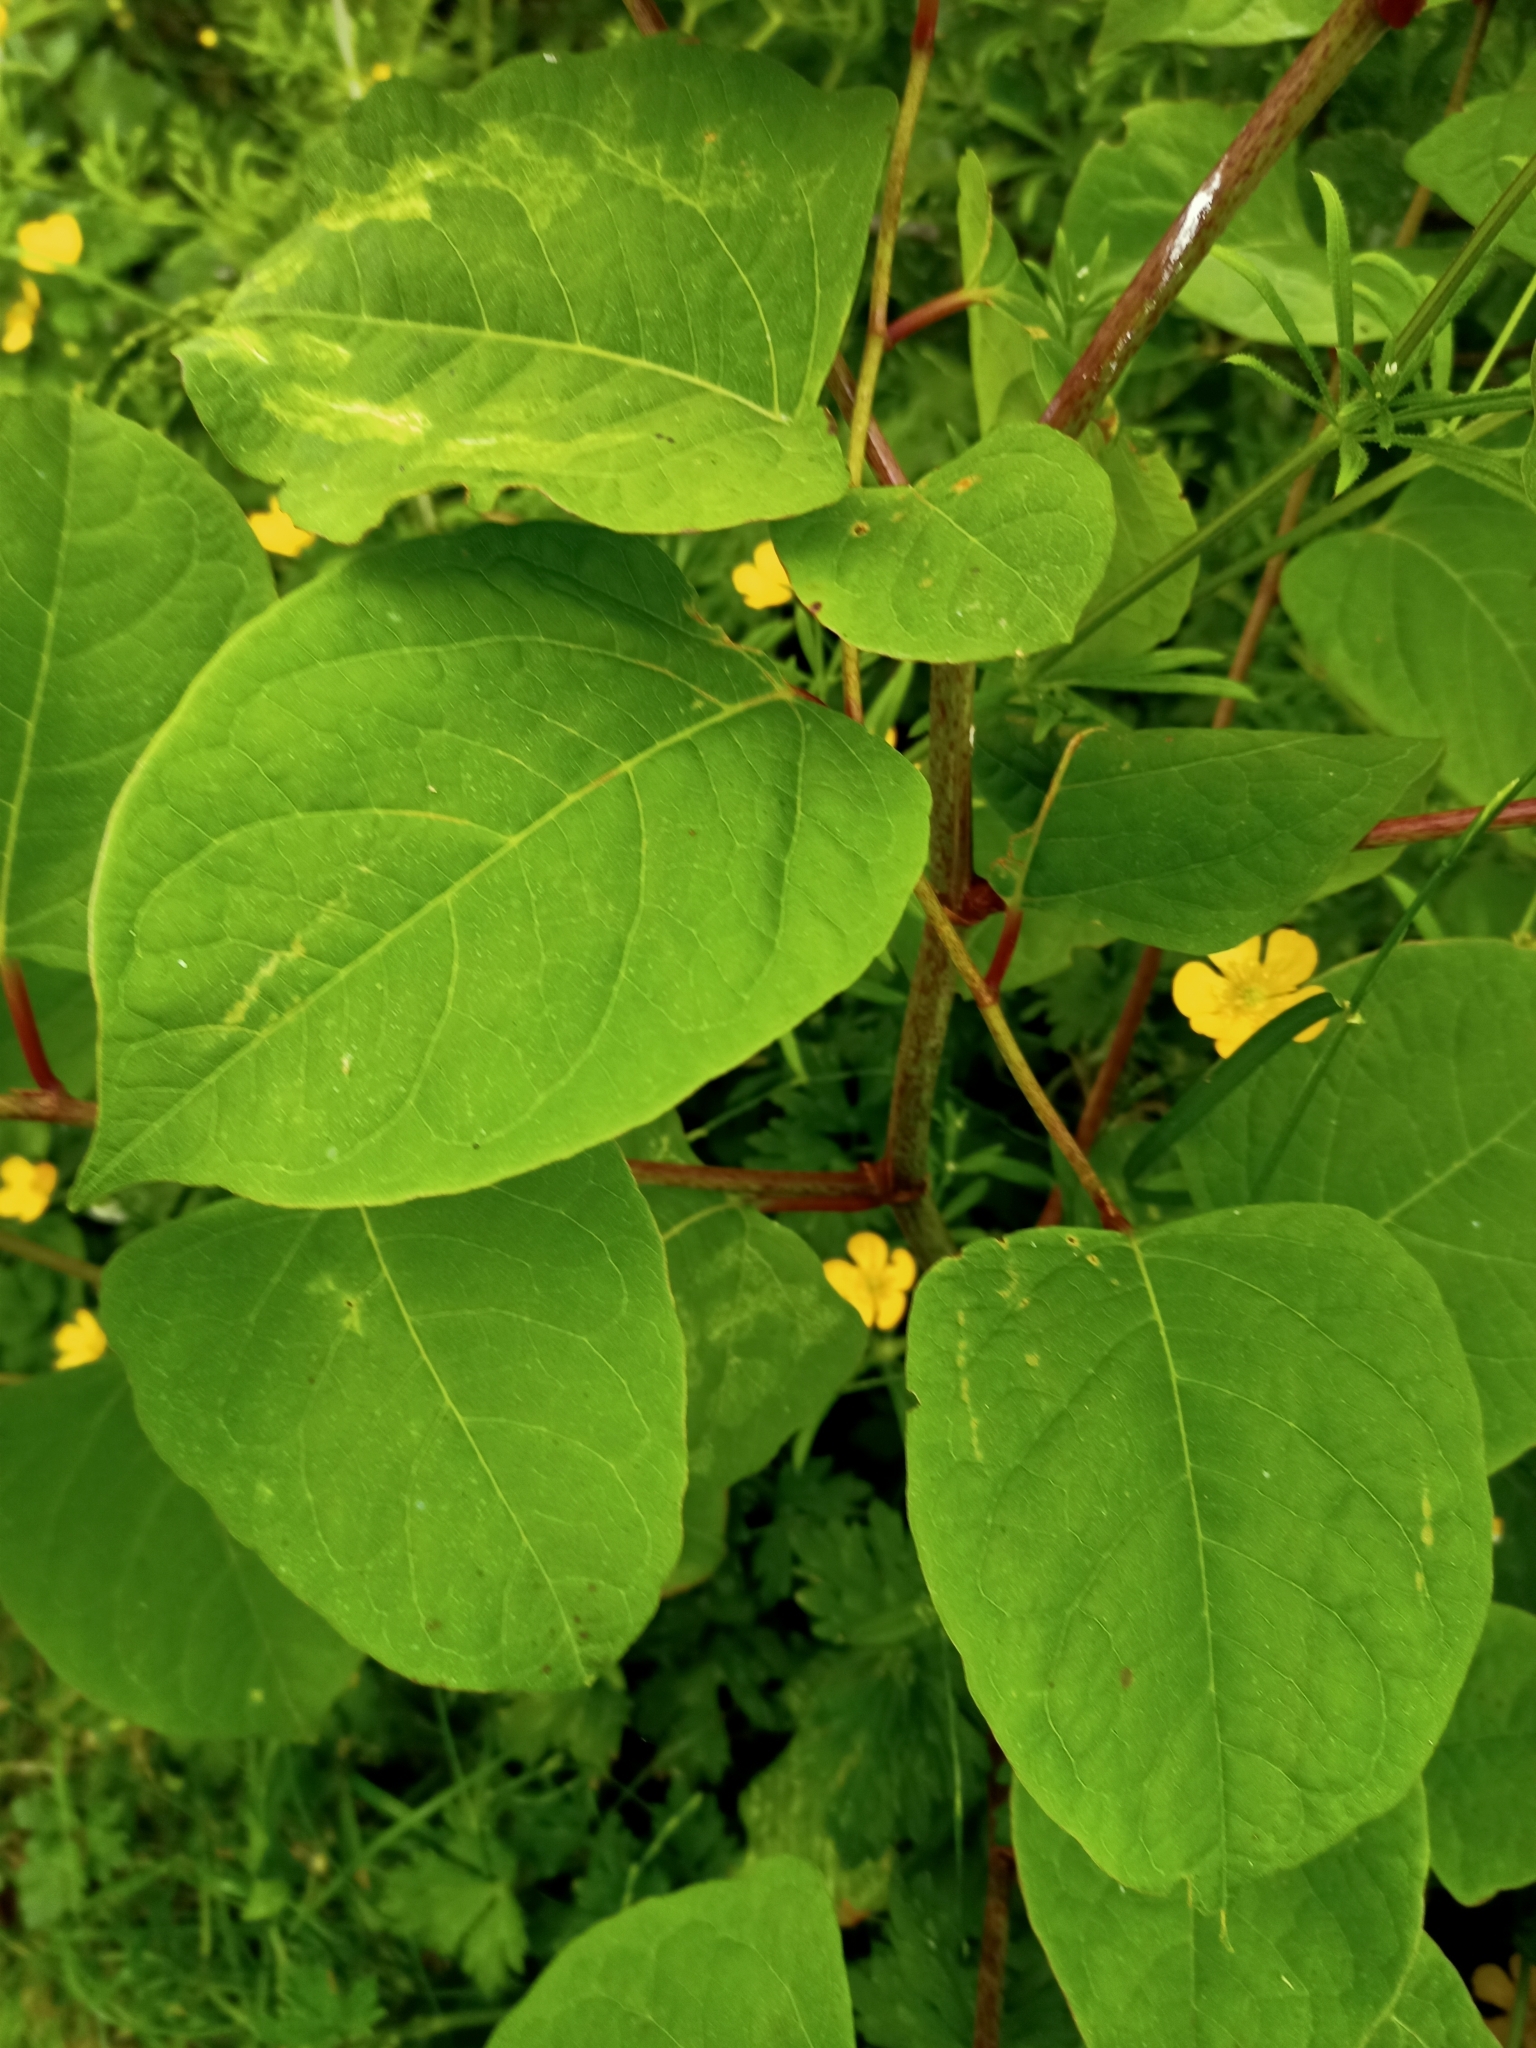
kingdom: Plantae
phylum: Tracheophyta
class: Magnoliopsida
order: Caryophyllales
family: Polygonaceae
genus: Reynoutria
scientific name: Reynoutria japonica
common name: Japanese knotweed
